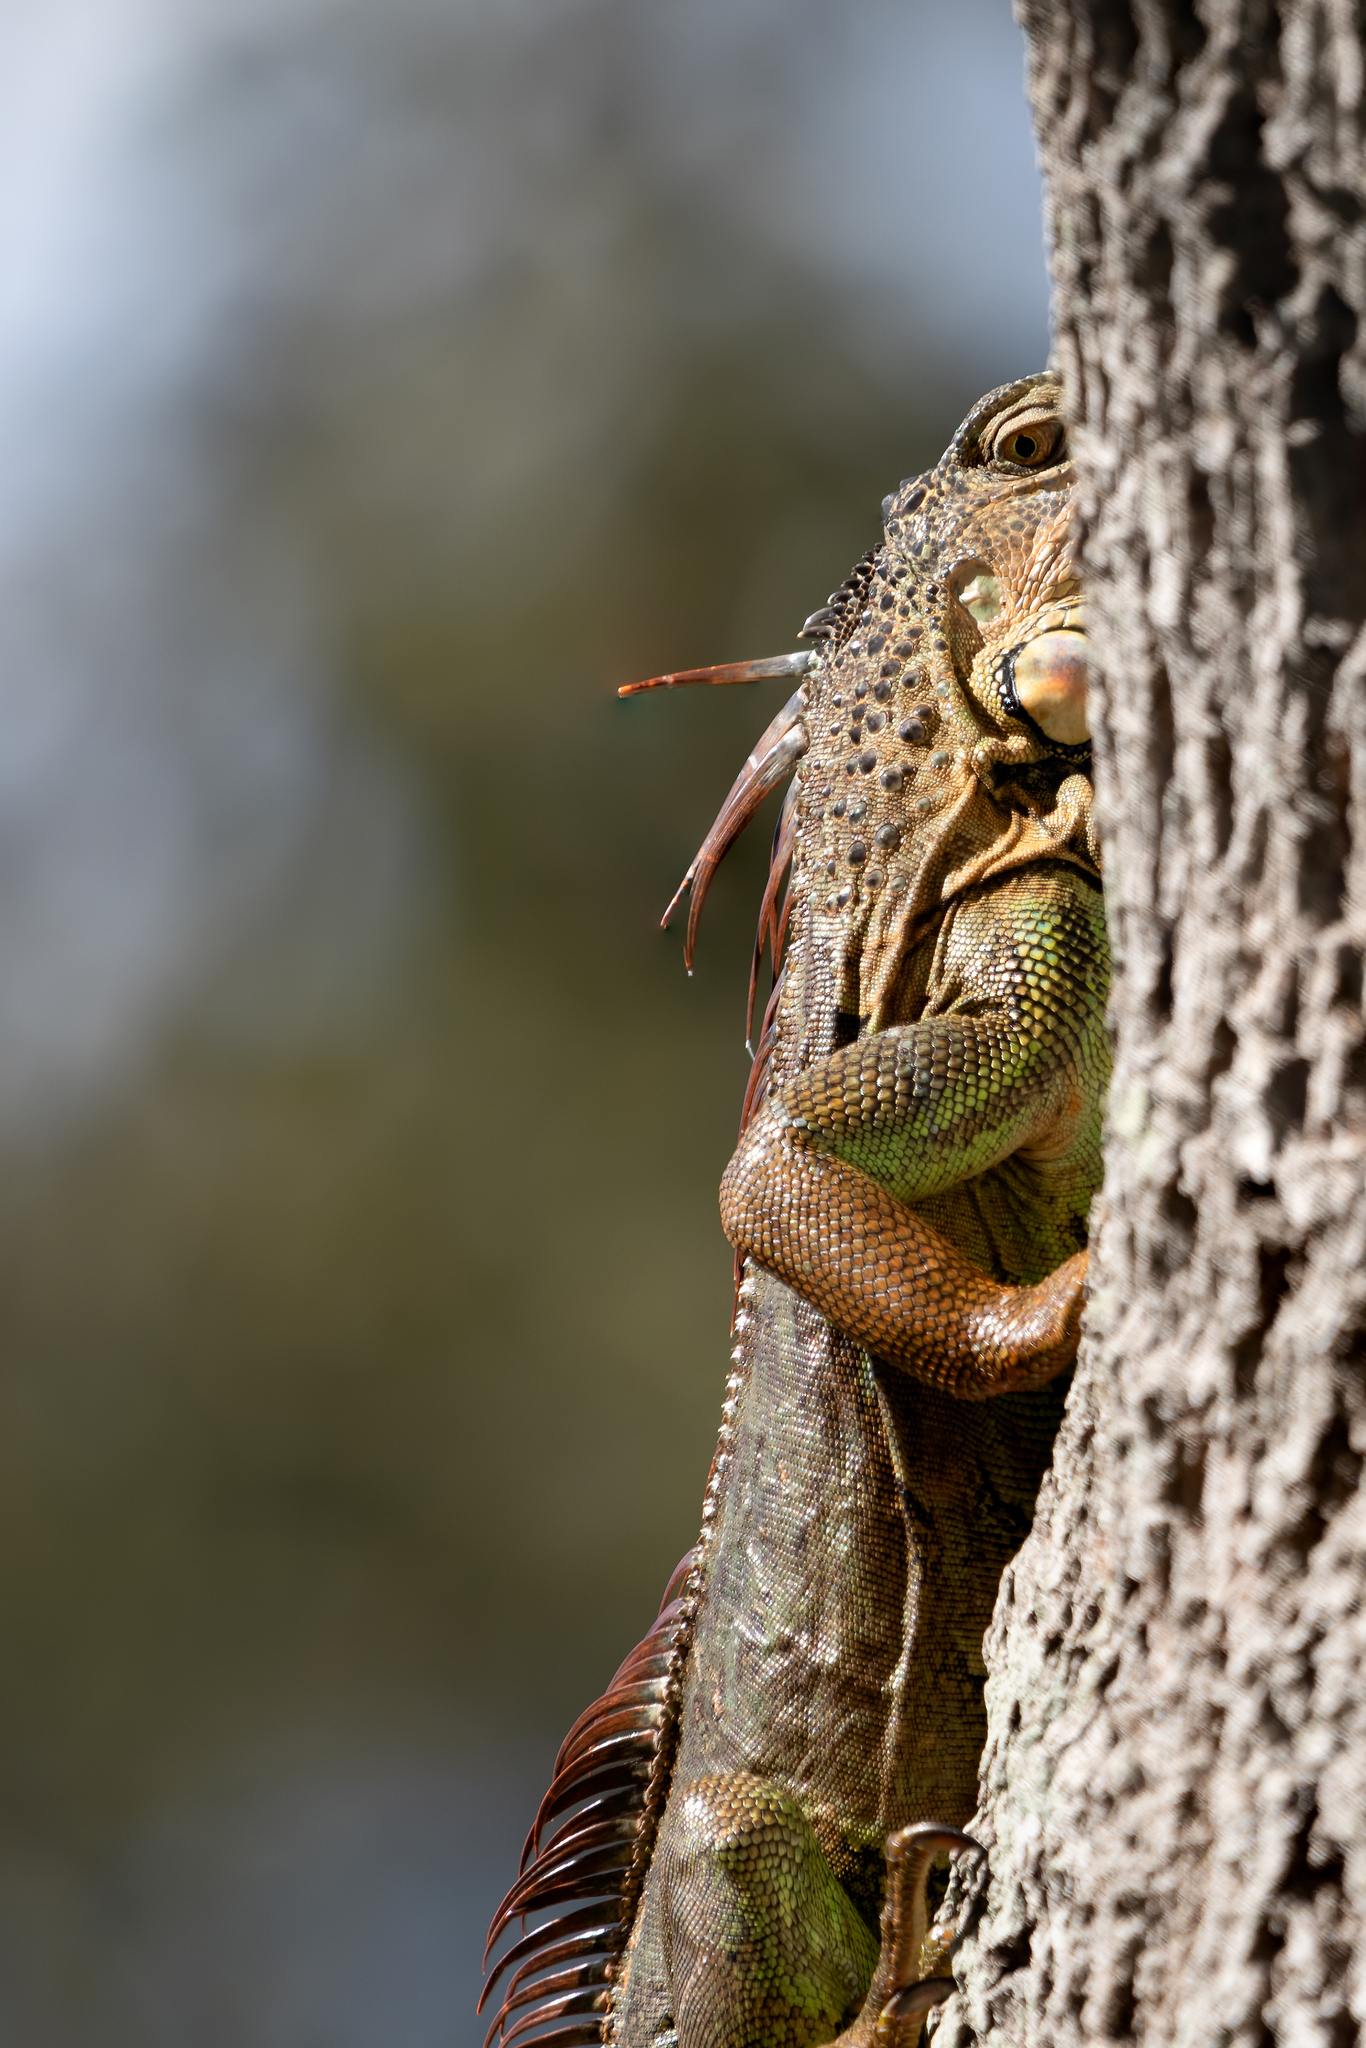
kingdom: Animalia
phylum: Chordata
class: Squamata
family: Iguanidae
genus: Iguana
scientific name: Iguana iguana
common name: Green iguana
